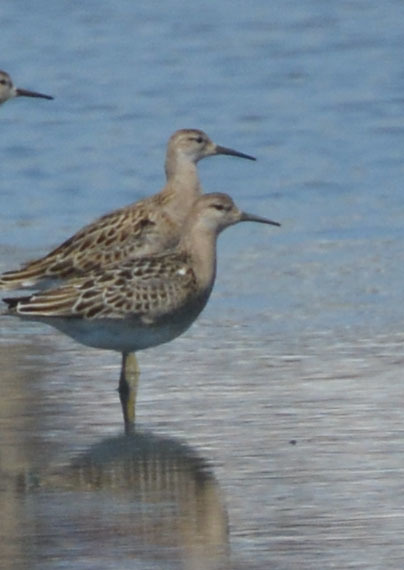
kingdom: Animalia
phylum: Chordata
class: Aves
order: Charadriiformes
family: Scolopacidae
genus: Calidris
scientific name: Calidris pugnax
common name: Ruff
